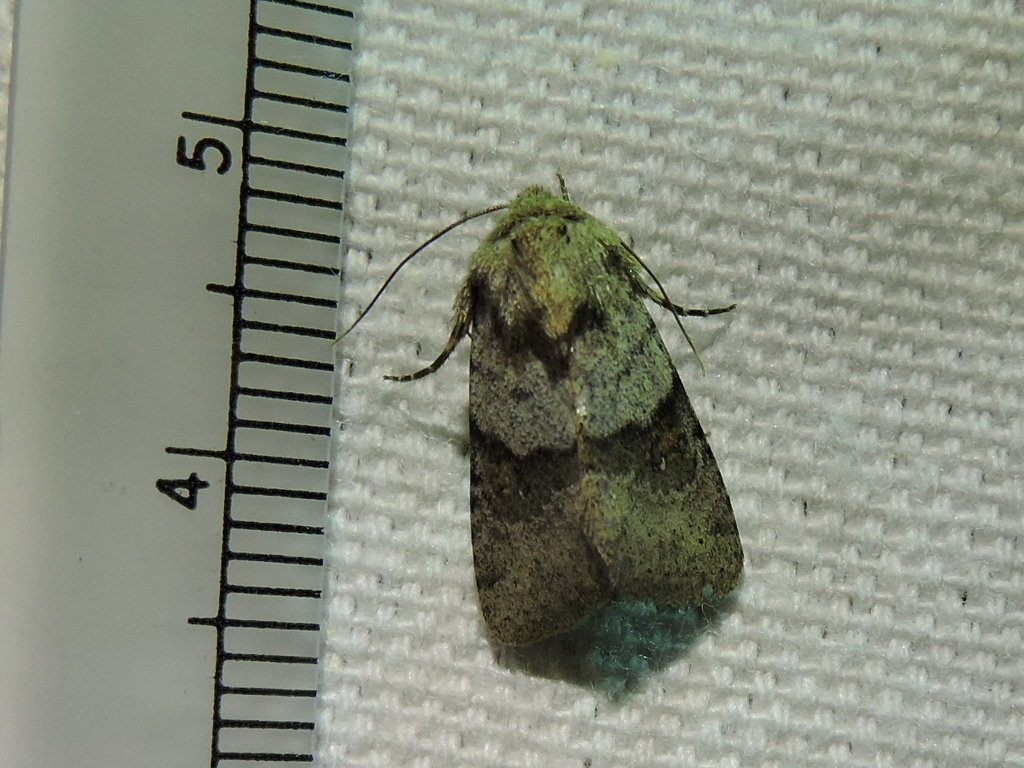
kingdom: Animalia
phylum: Arthropoda
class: Insecta
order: Lepidoptera
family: Noctuidae
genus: Ulolonche
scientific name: Ulolonche dilecta
